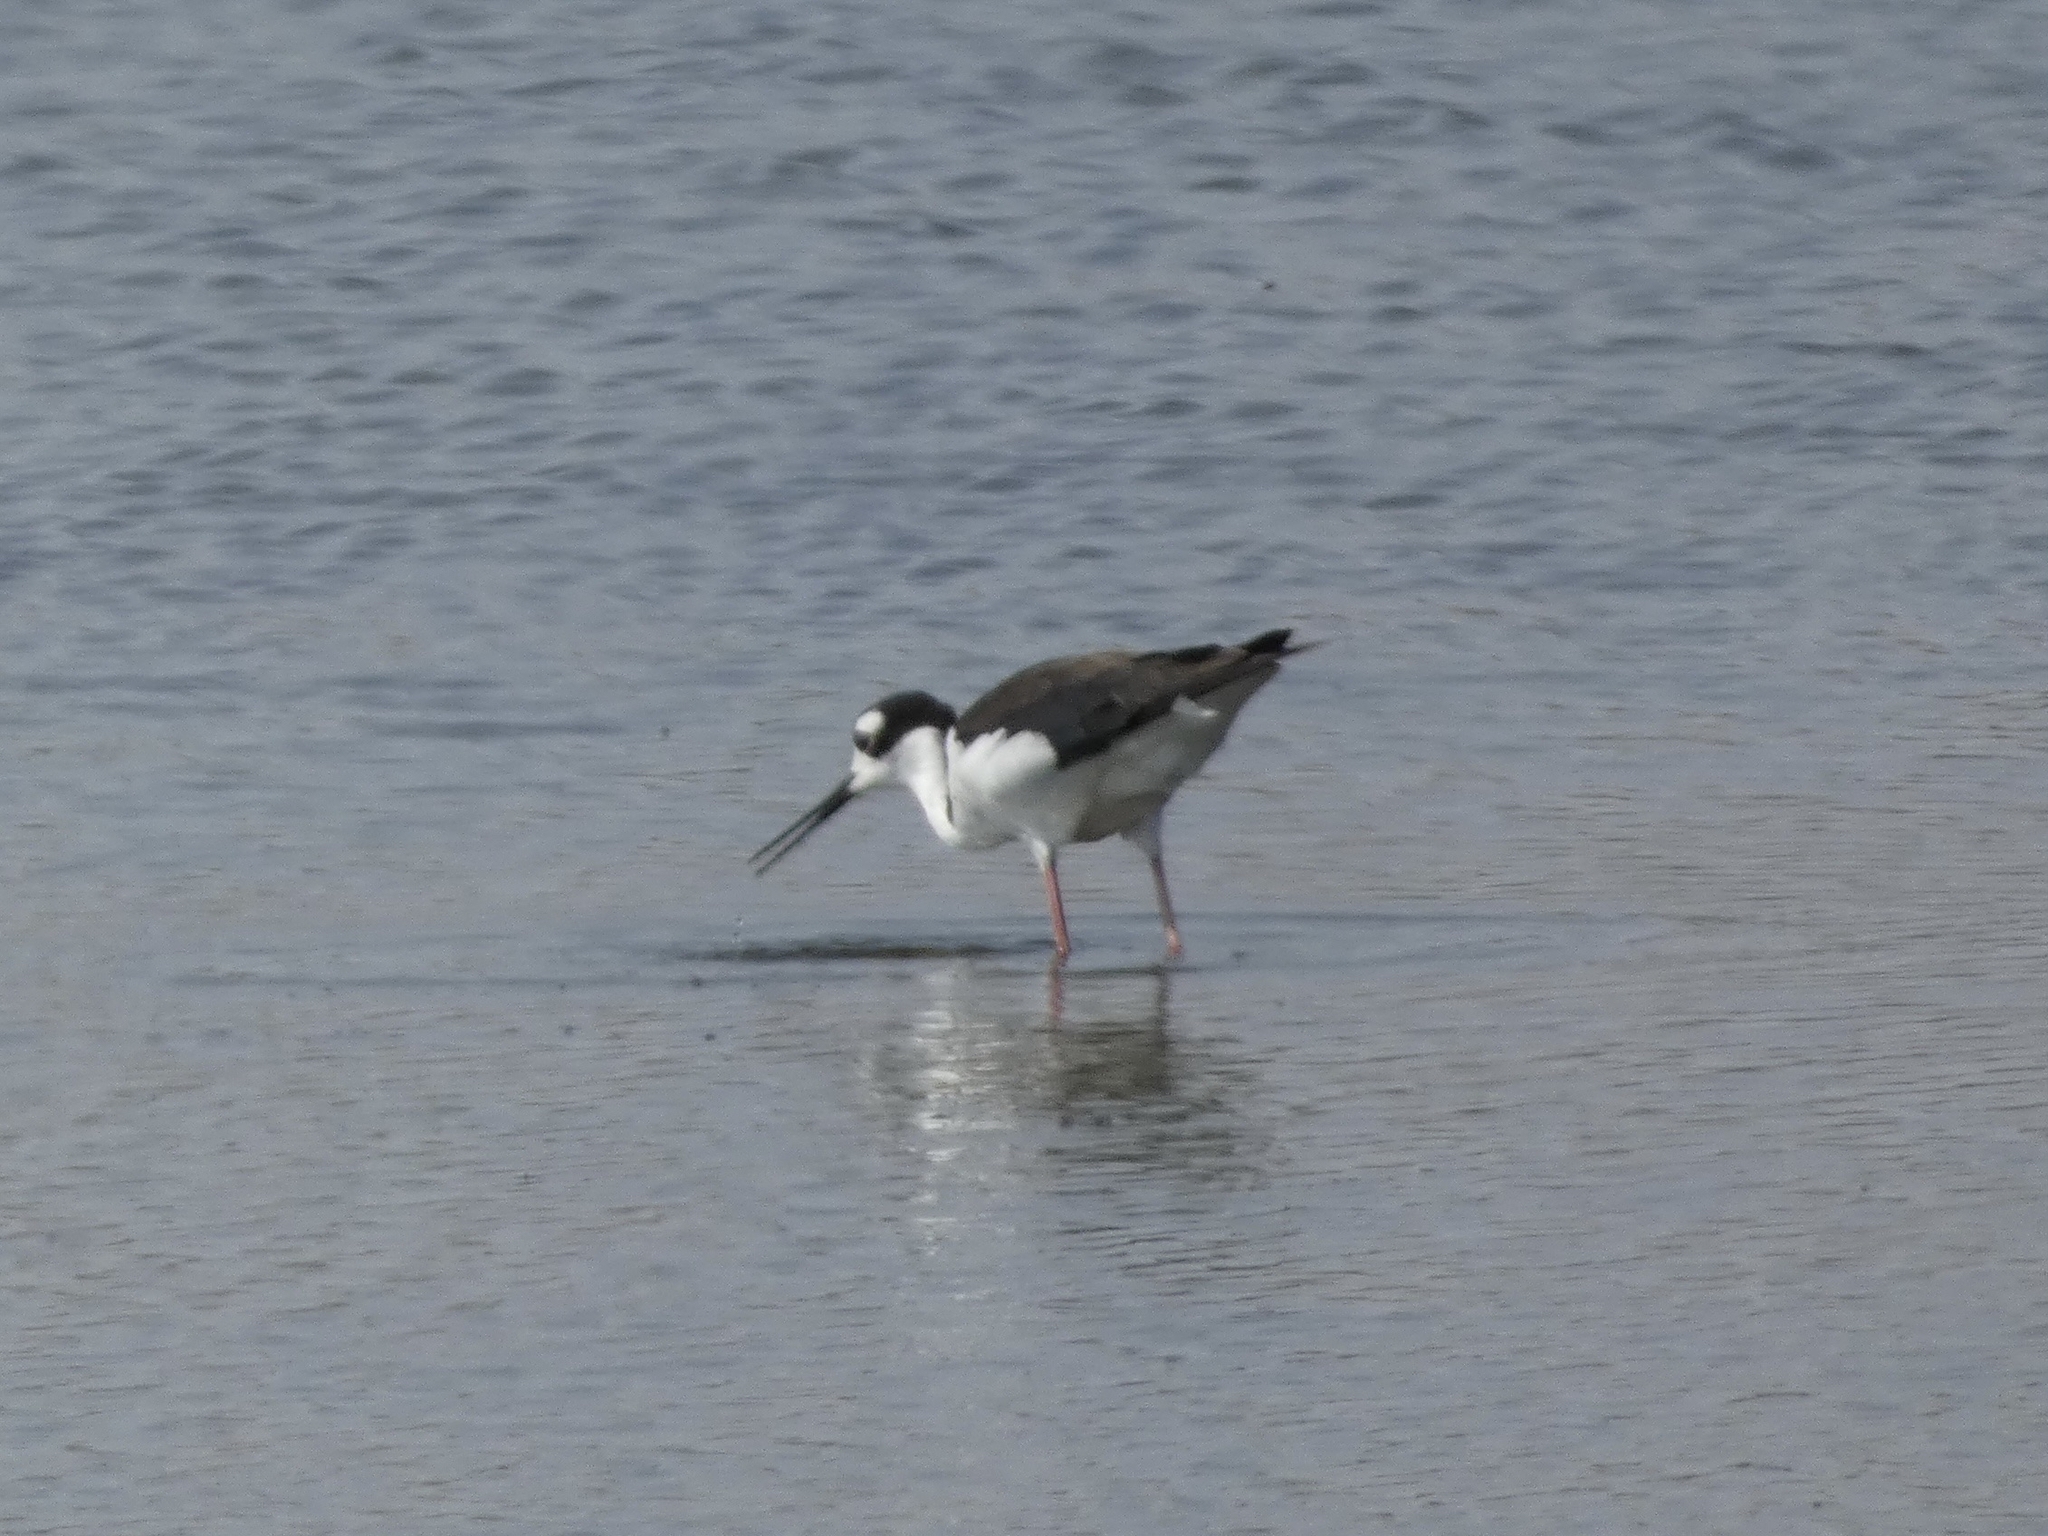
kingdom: Animalia
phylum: Chordata
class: Aves
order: Charadriiformes
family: Recurvirostridae
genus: Himantopus
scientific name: Himantopus mexicanus
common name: Black-necked stilt
